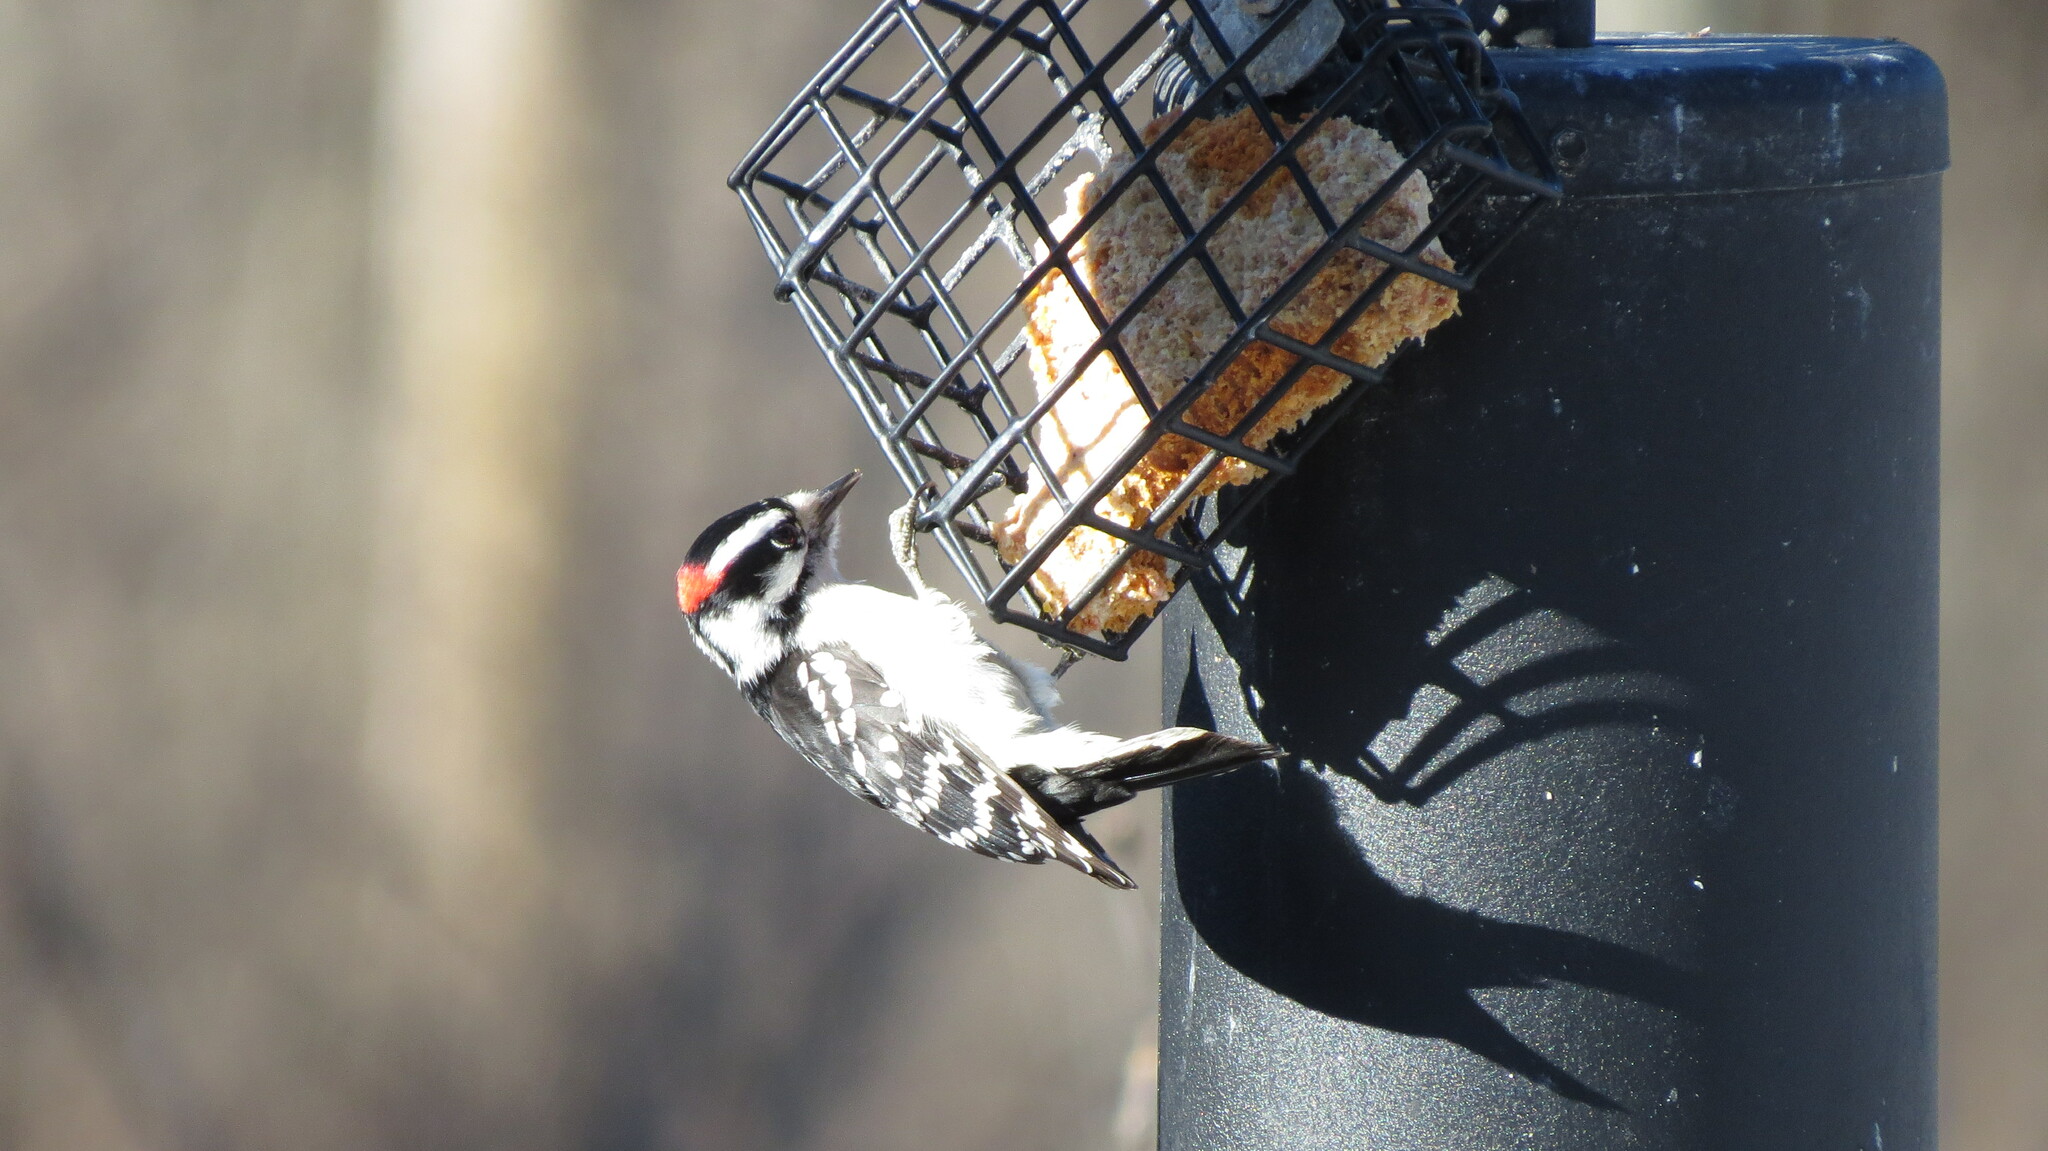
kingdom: Animalia
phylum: Chordata
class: Aves
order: Piciformes
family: Picidae
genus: Dryobates
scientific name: Dryobates pubescens
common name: Downy woodpecker
